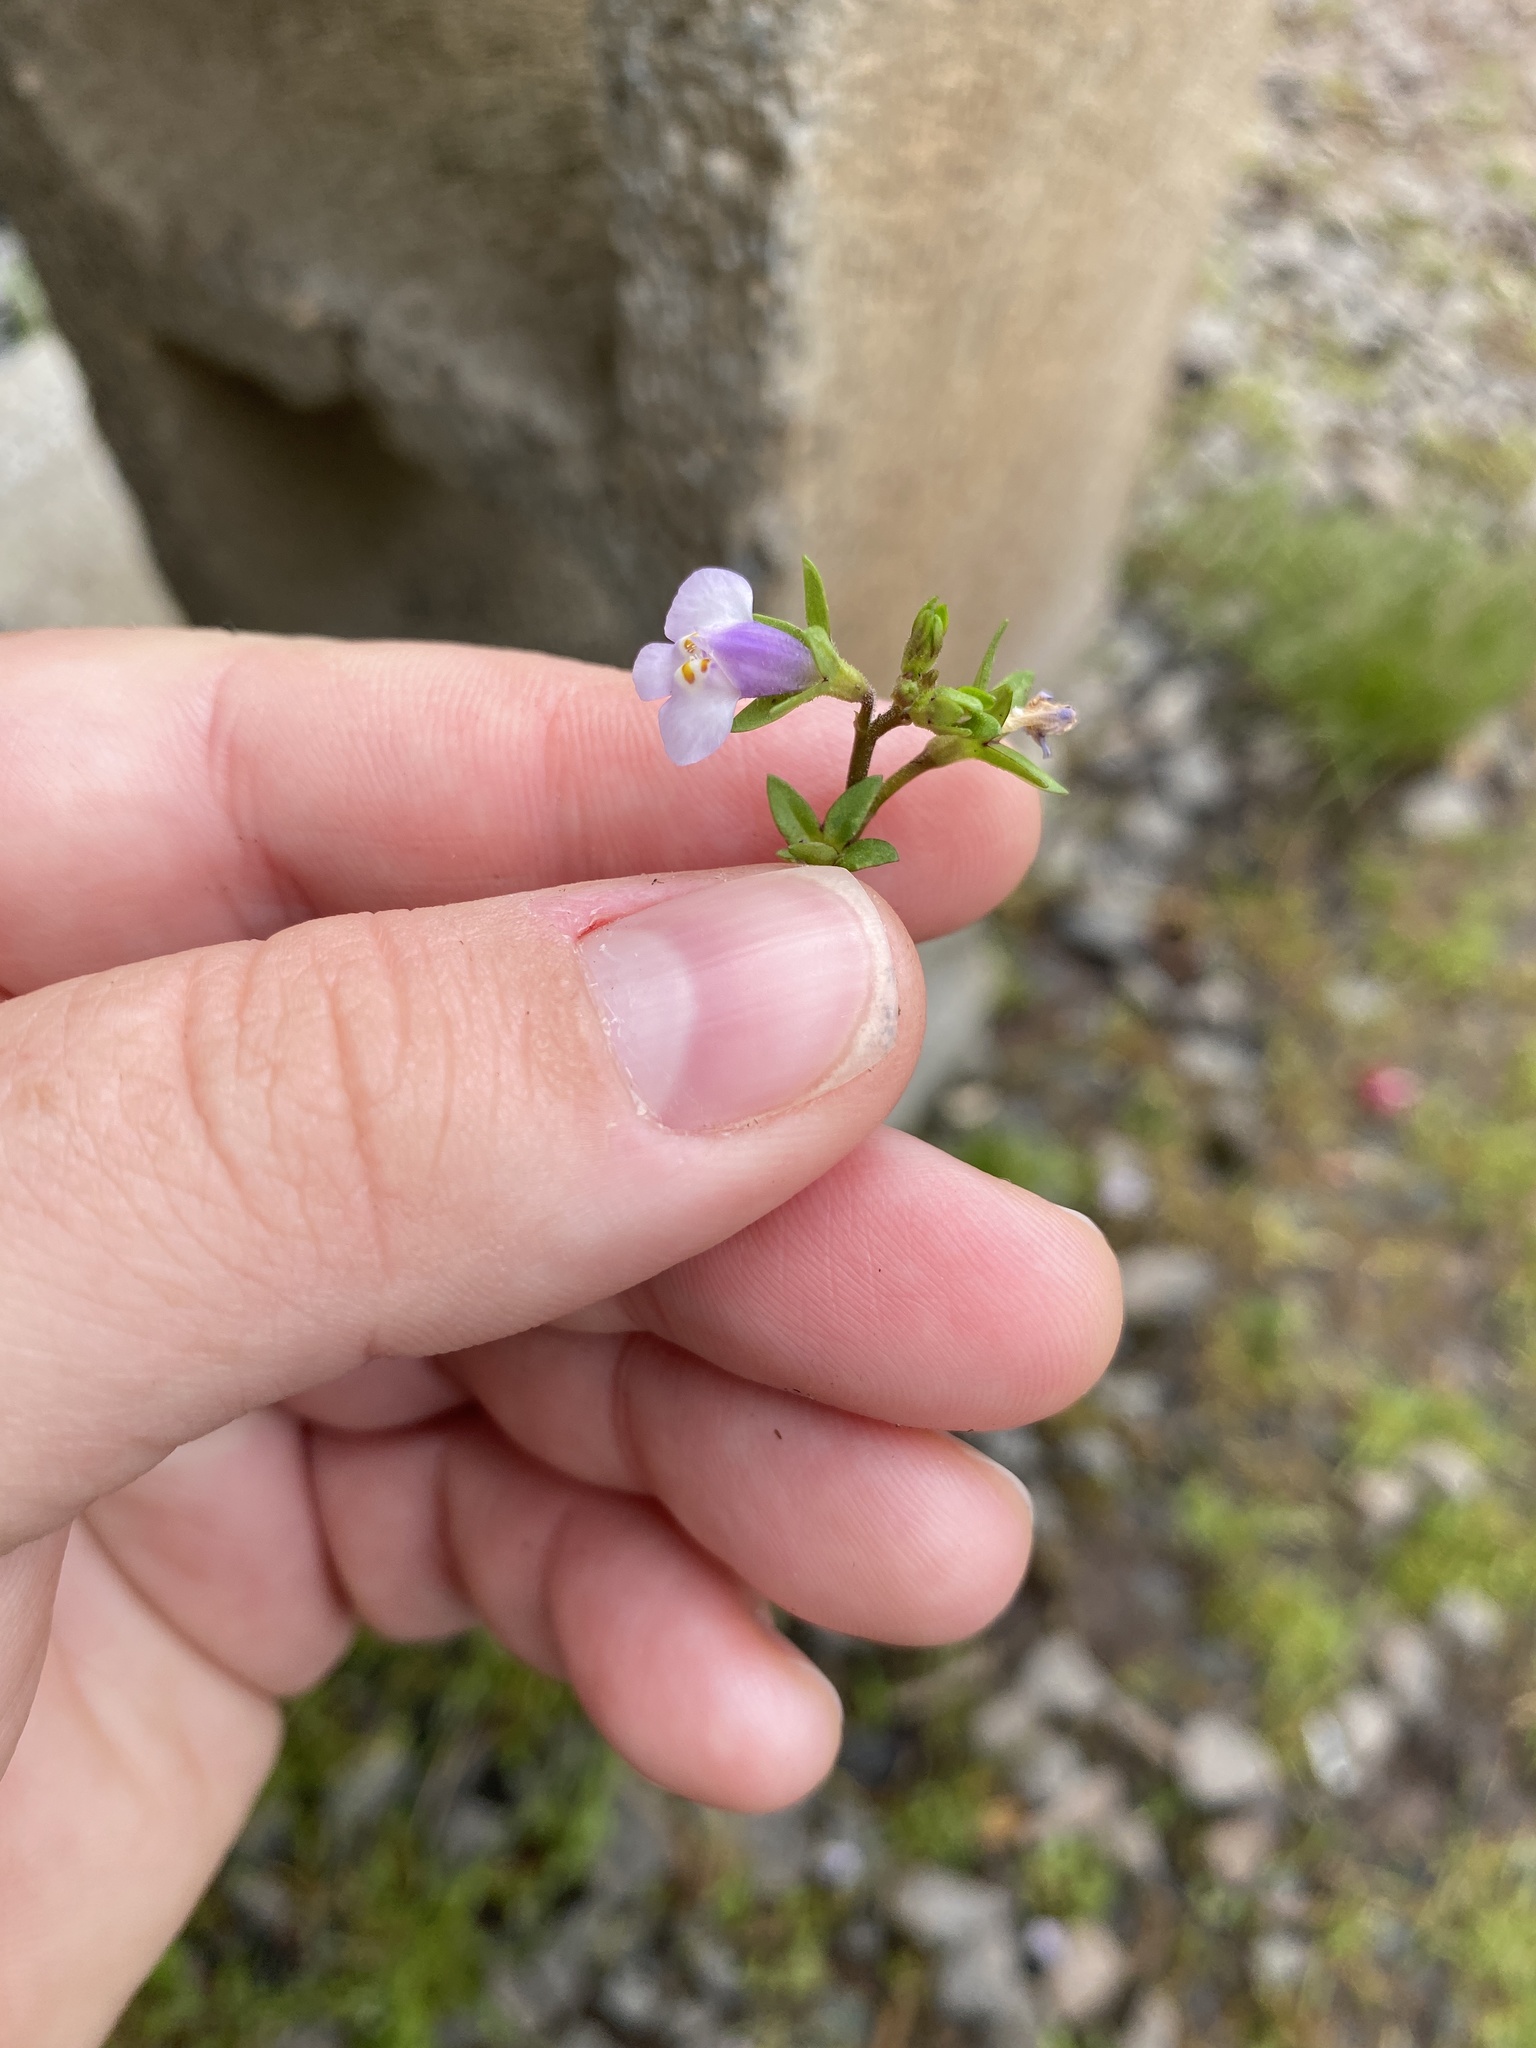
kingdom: Plantae
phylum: Tracheophyta
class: Magnoliopsida
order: Lamiales
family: Mazaceae
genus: Mazus
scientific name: Mazus pumilus
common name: Japanese mazus
